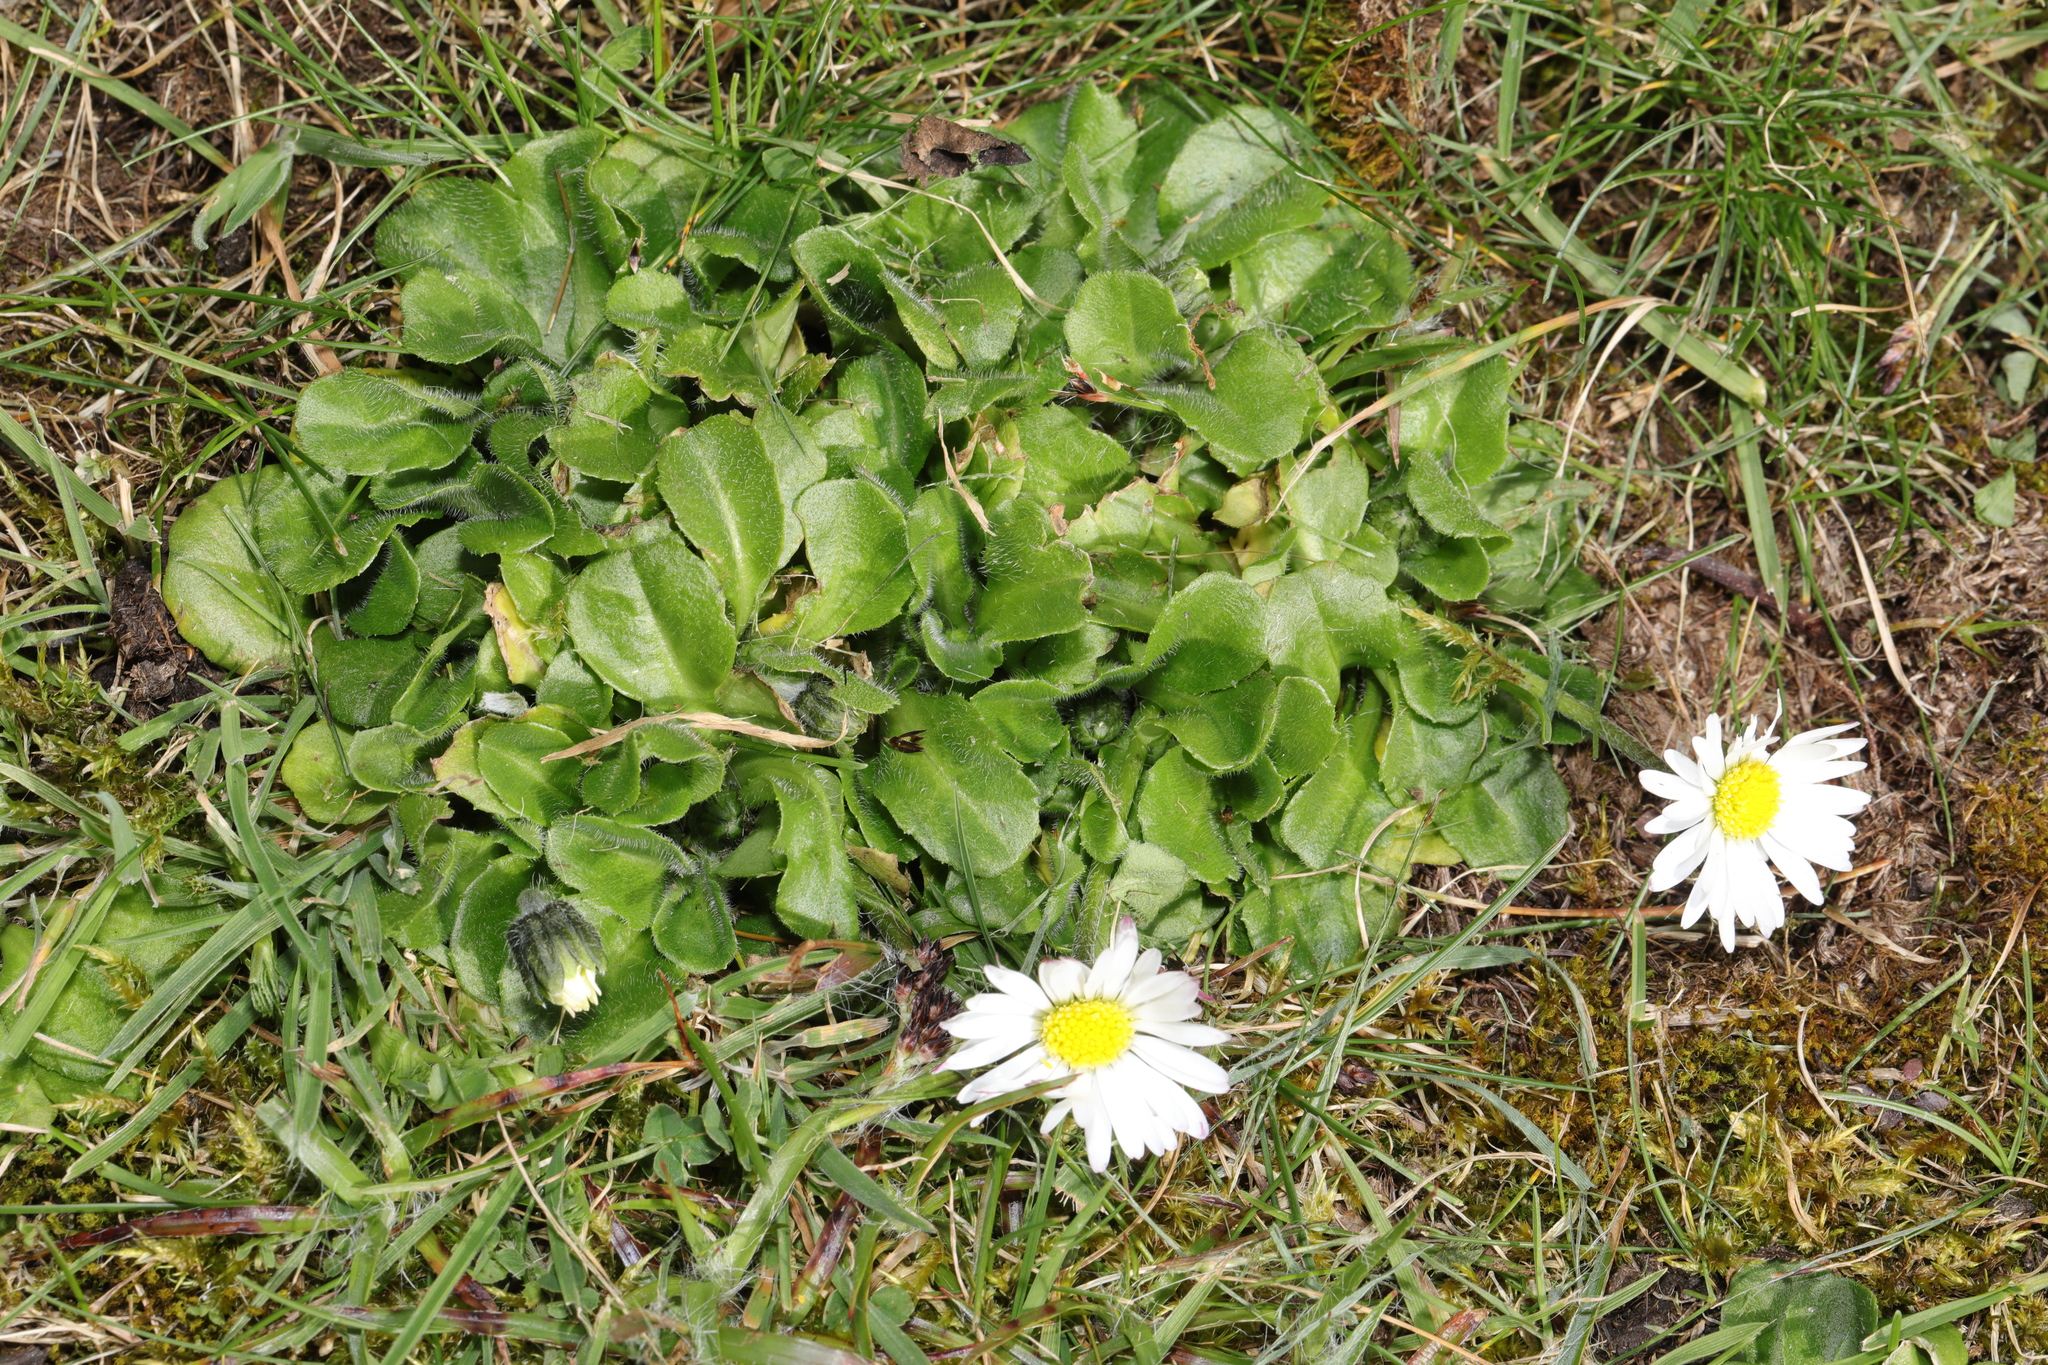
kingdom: Plantae
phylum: Tracheophyta
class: Magnoliopsida
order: Asterales
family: Asteraceae
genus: Bellis
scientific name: Bellis perennis
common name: Lawndaisy
